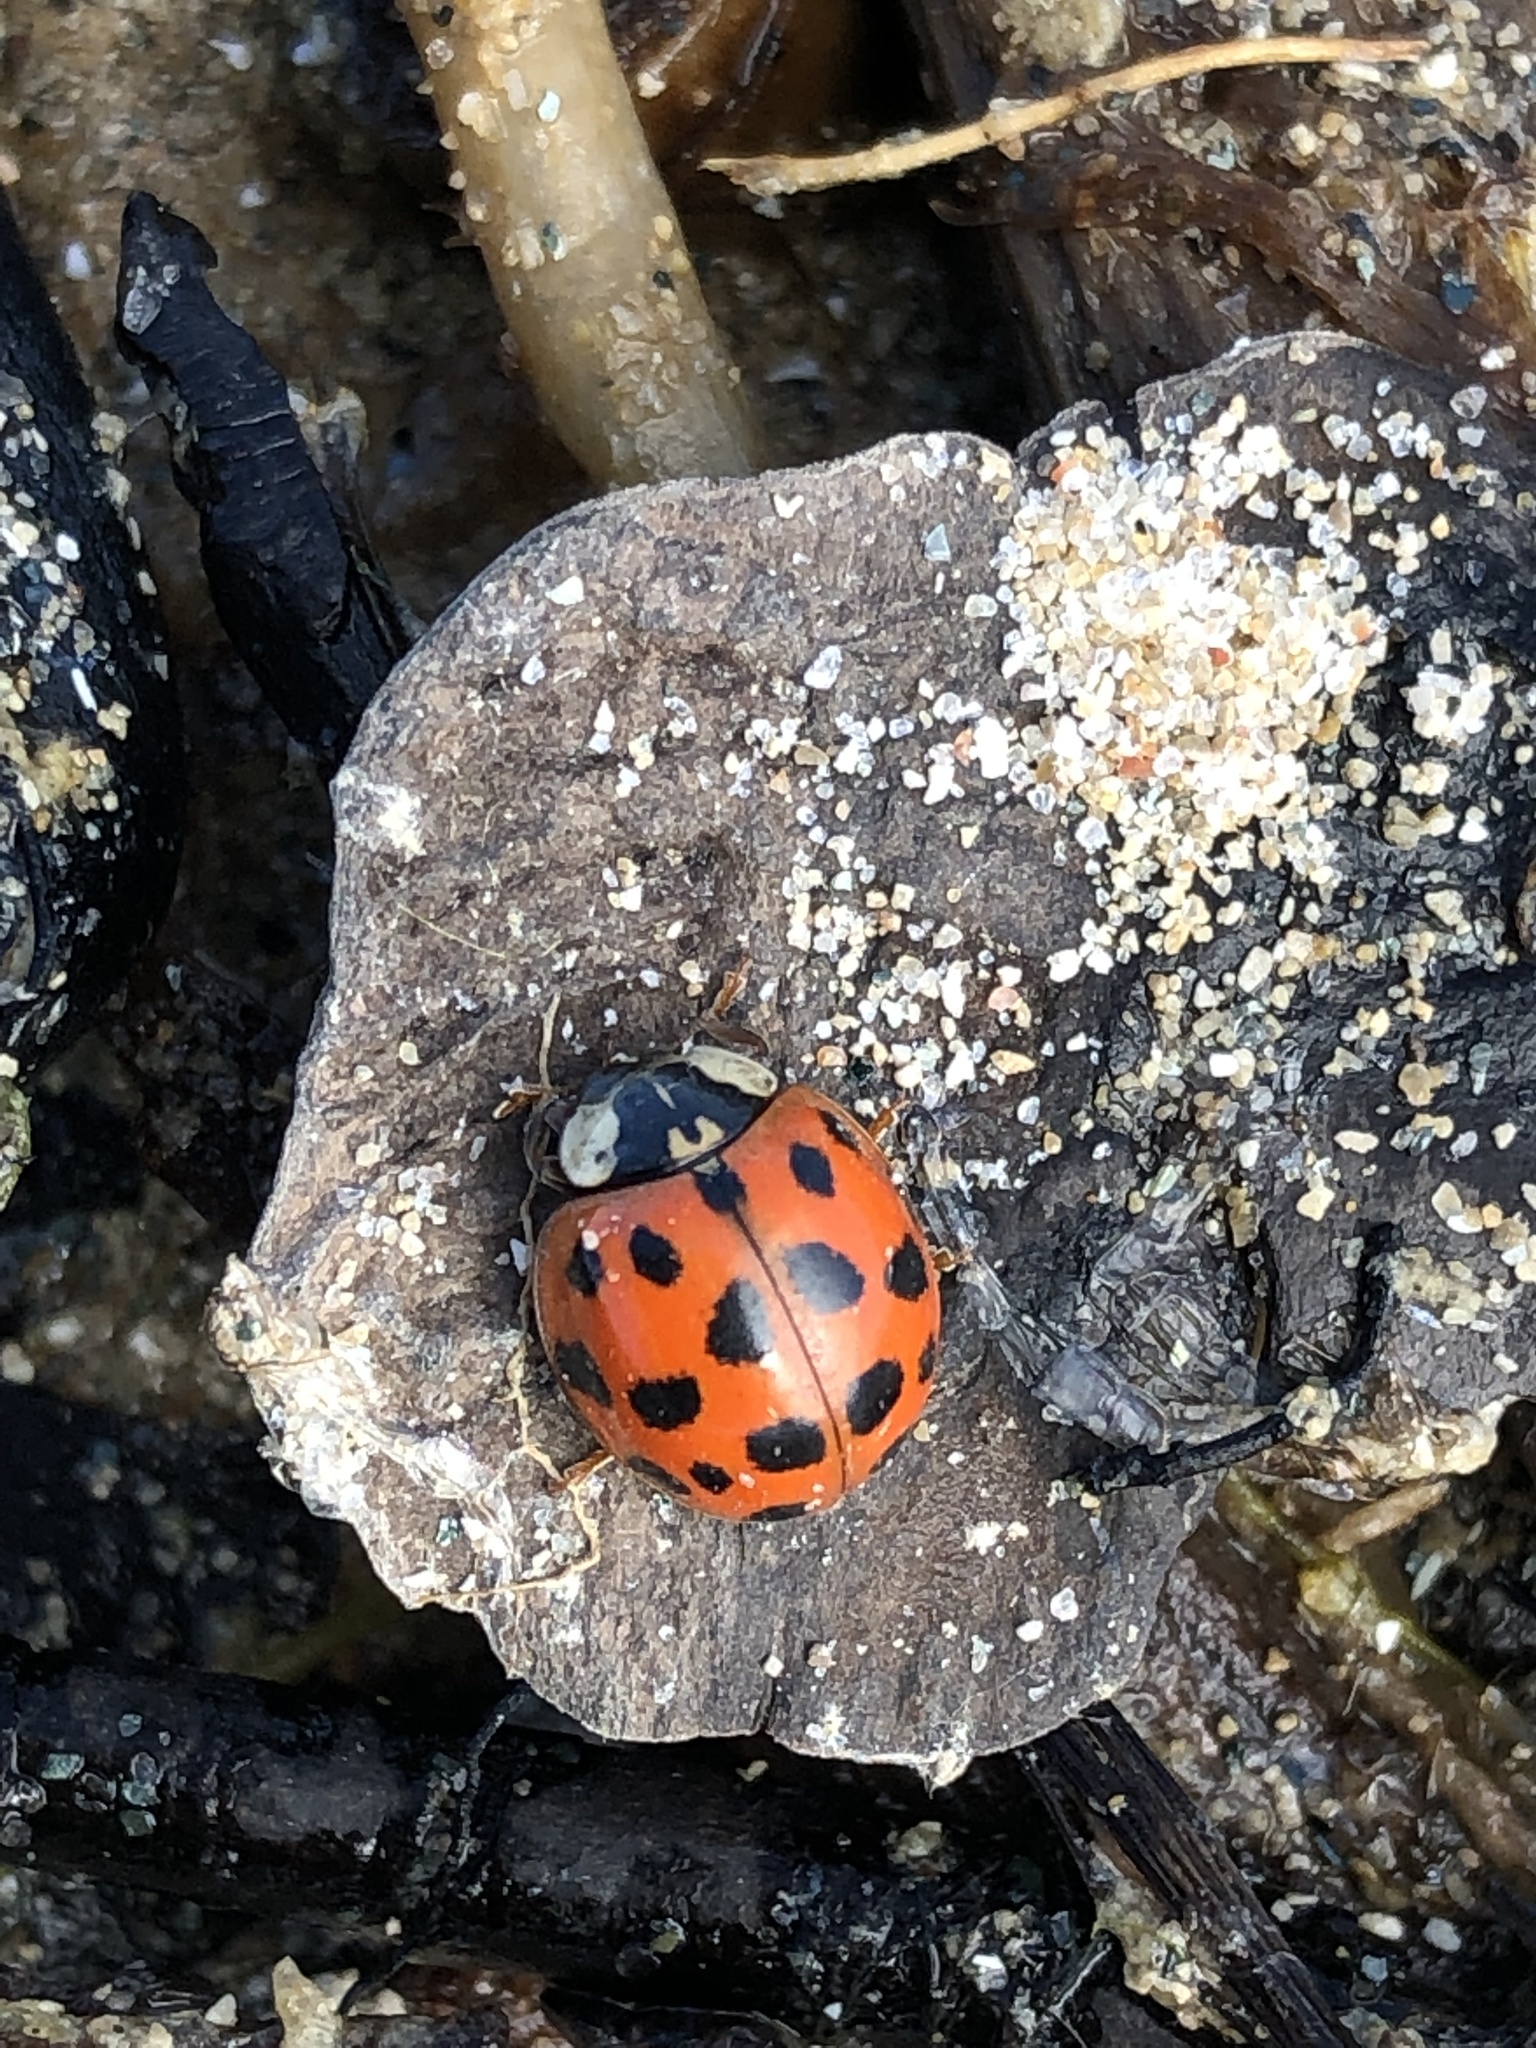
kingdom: Animalia
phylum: Arthropoda
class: Insecta
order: Coleoptera
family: Coccinellidae
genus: Harmonia
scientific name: Harmonia axyridis
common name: Harlequin ladybird
